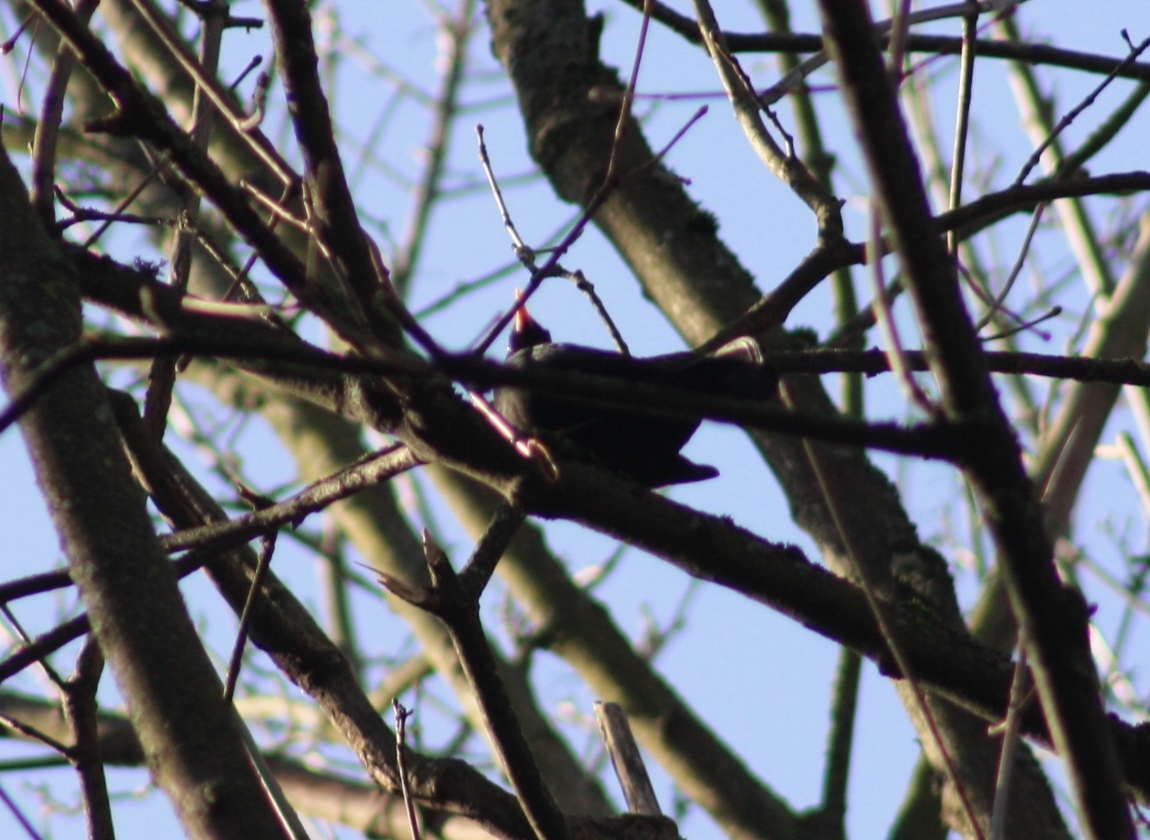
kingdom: Animalia
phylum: Chordata
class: Aves
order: Passeriformes
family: Turdidae
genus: Turdus
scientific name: Turdus merula
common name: Common blackbird
